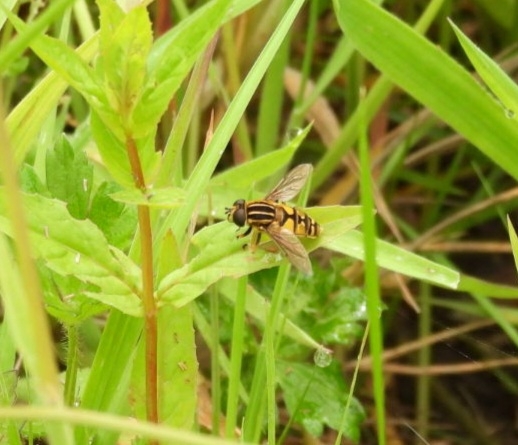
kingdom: Animalia
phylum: Arthropoda
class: Insecta
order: Diptera
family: Syrphidae
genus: Helophilus
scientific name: Helophilus pendulus
